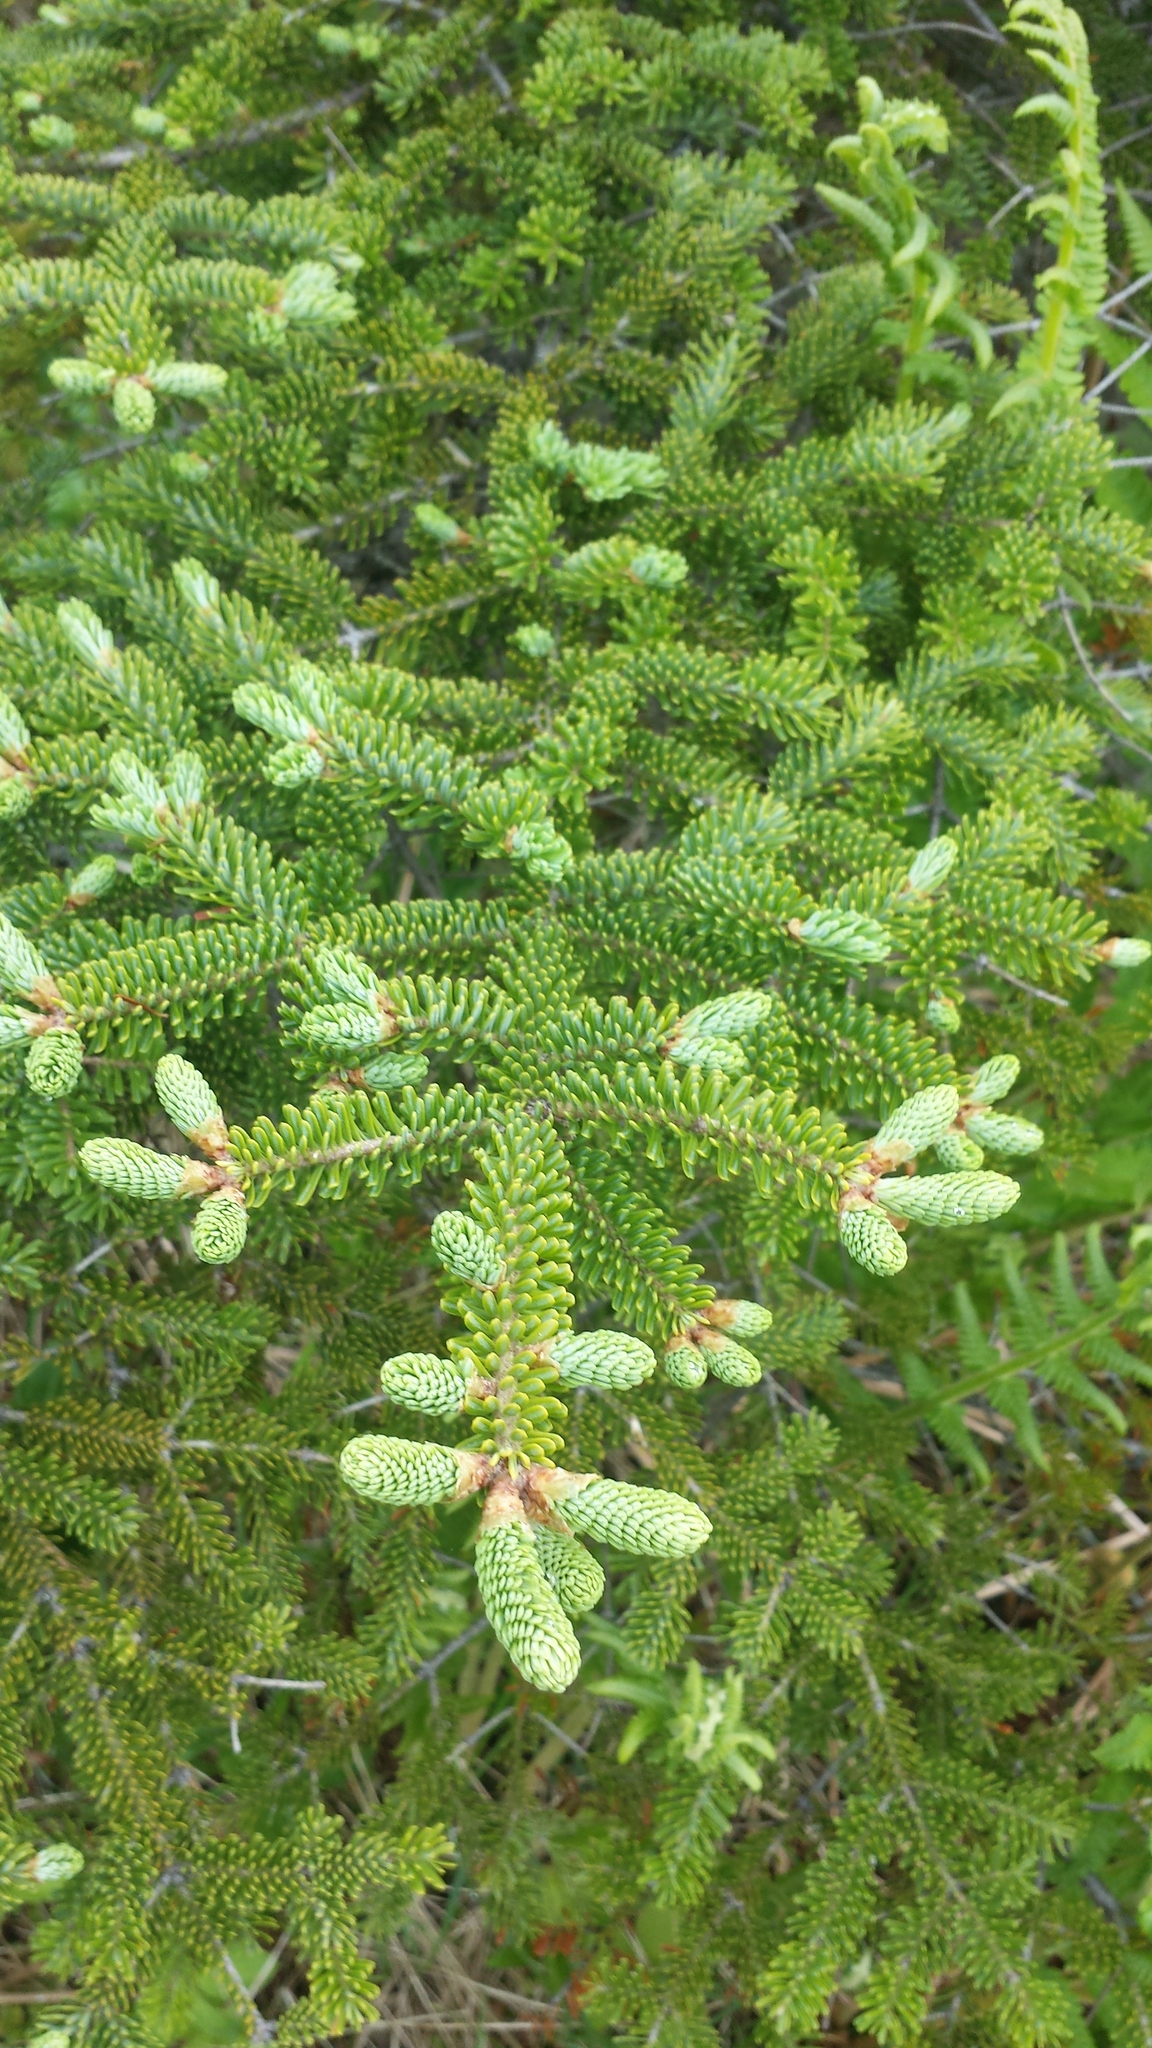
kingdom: Plantae
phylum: Tracheophyta
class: Pinopsida
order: Pinales
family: Pinaceae
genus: Abies
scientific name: Abies balsamea
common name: Balsam fir
